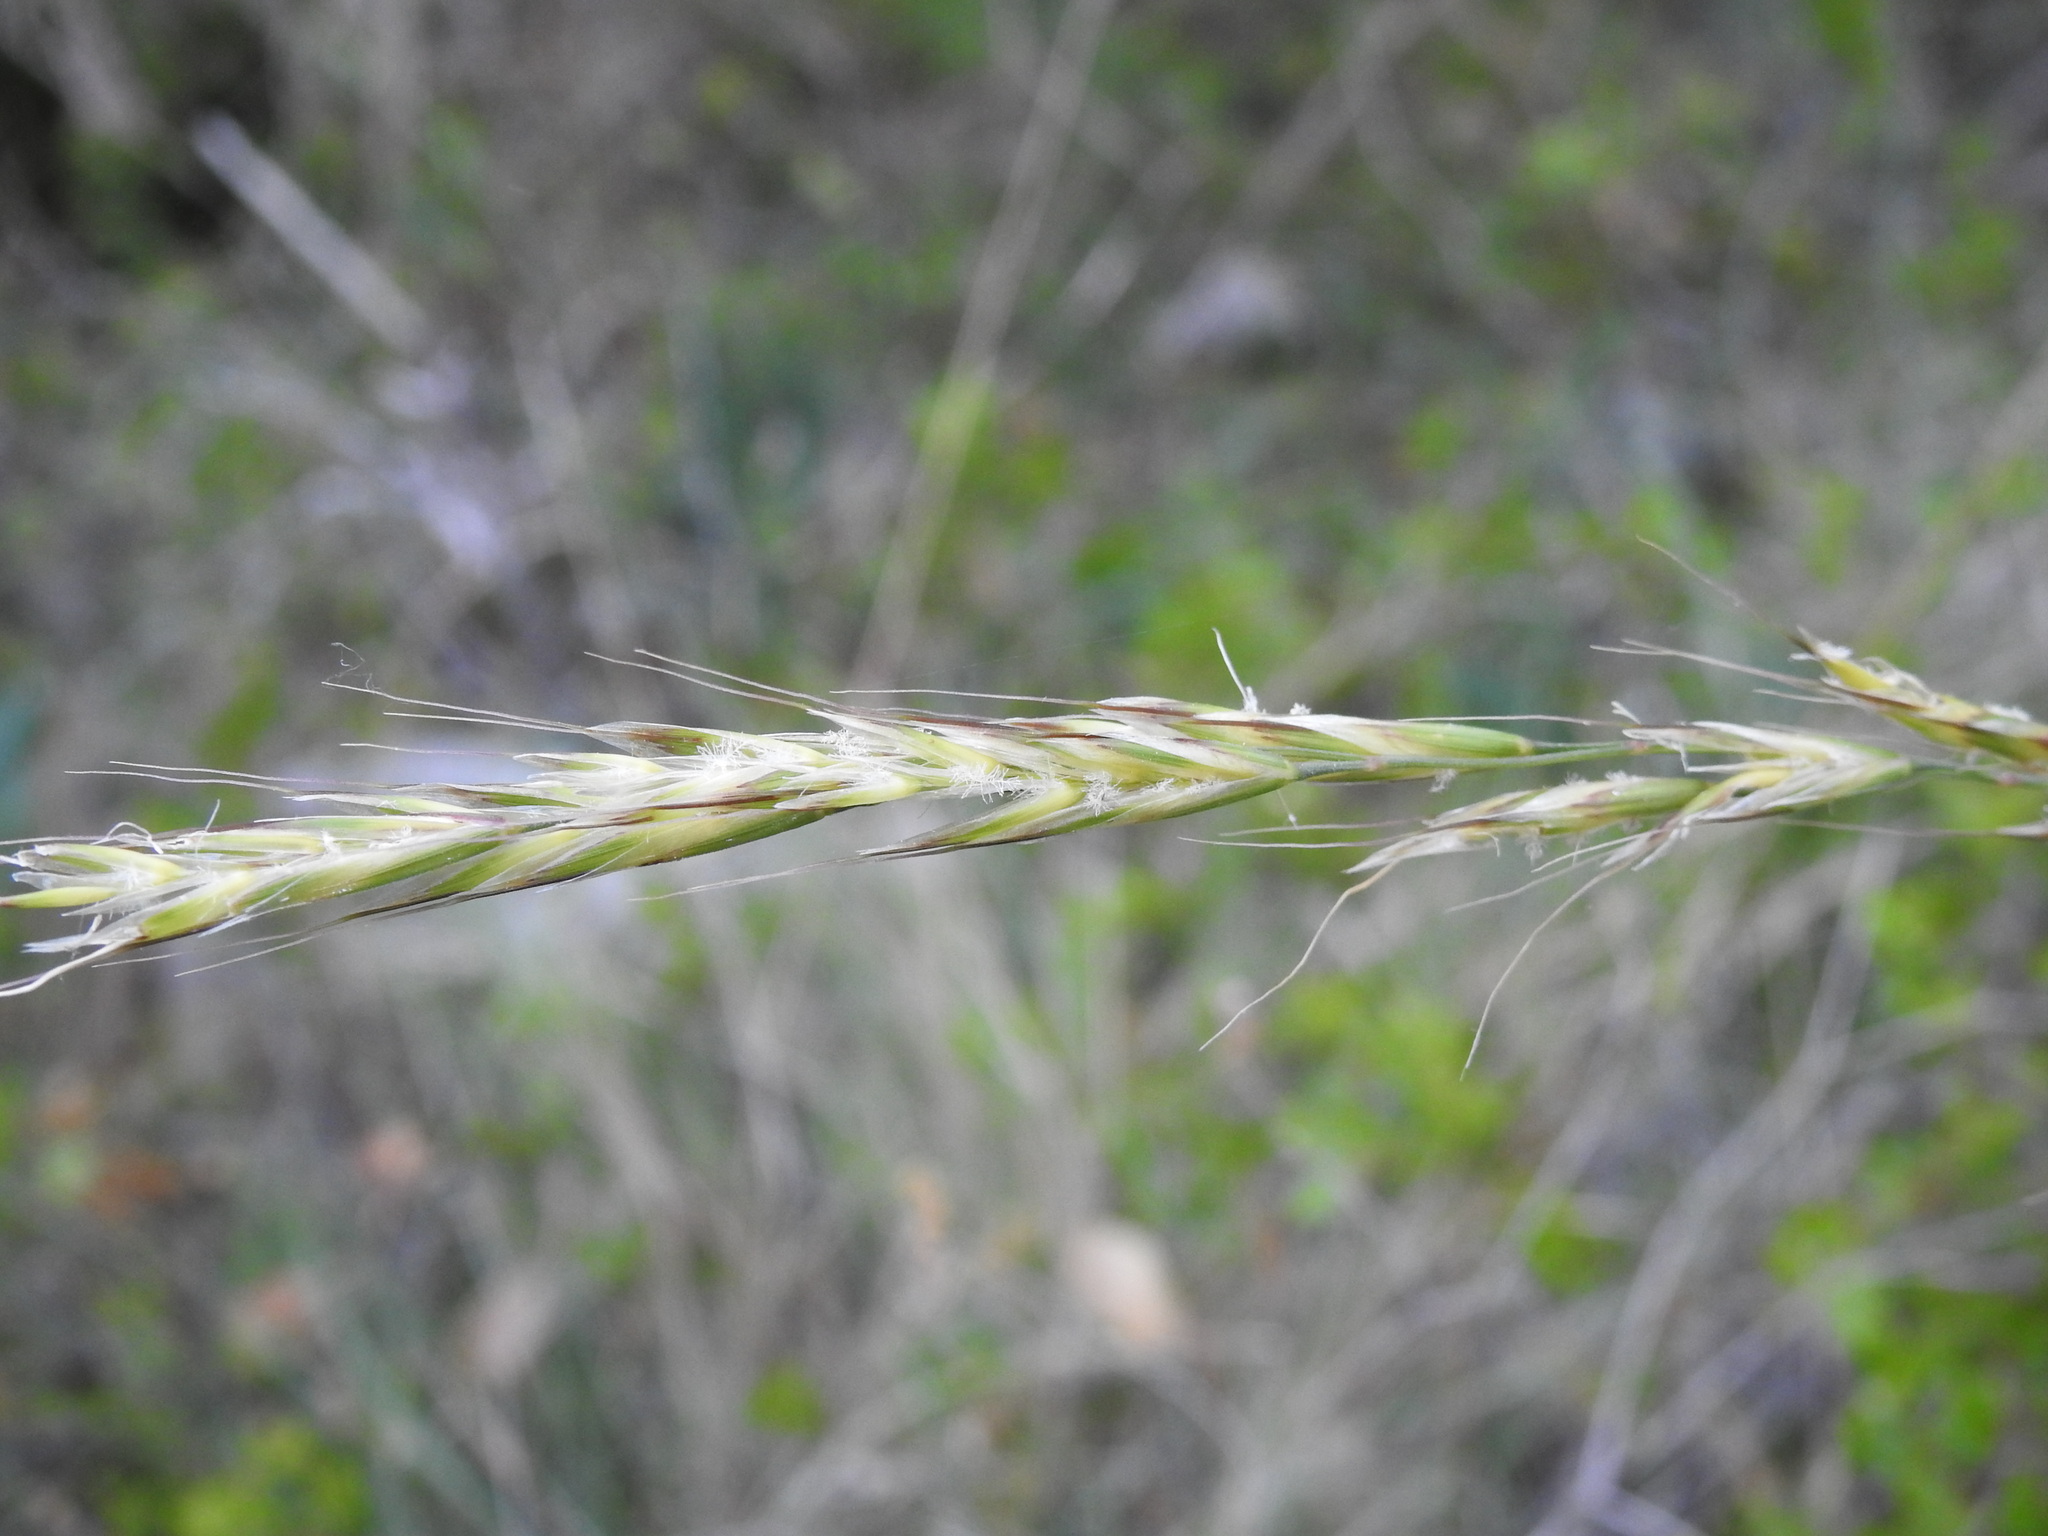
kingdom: Plantae
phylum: Tracheophyta
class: Liliopsida
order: Poales
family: Poaceae
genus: Arrhenatherum
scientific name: Arrhenatherum elatius
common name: Tall oatgrass
